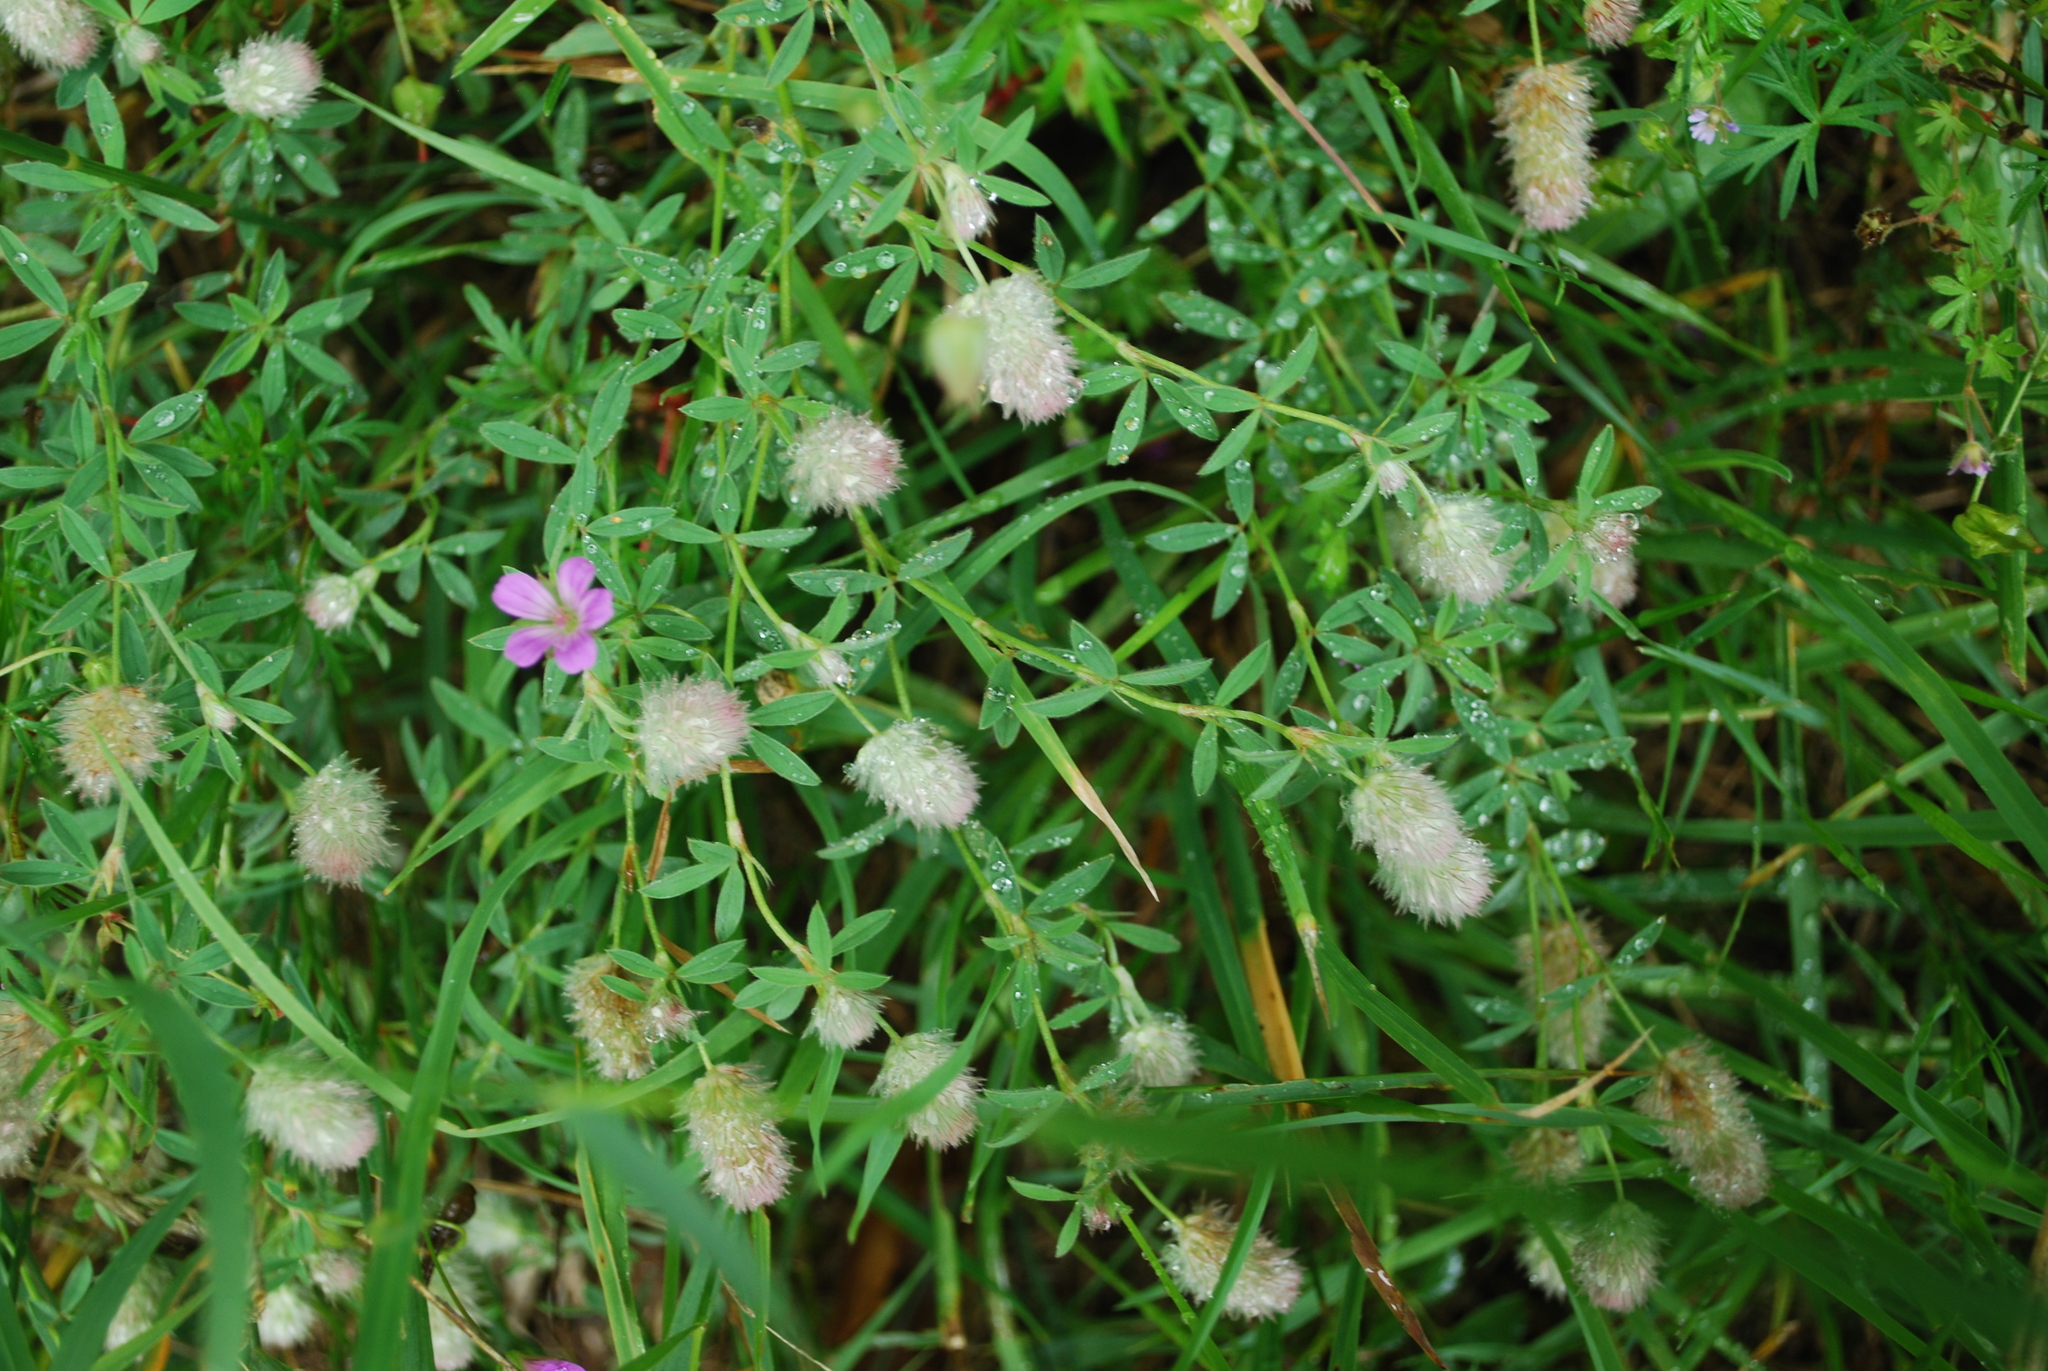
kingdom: Plantae
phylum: Tracheophyta
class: Magnoliopsida
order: Fabales
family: Fabaceae
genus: Trifolium
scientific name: Trifolium arvense
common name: Hare's-foot clover
